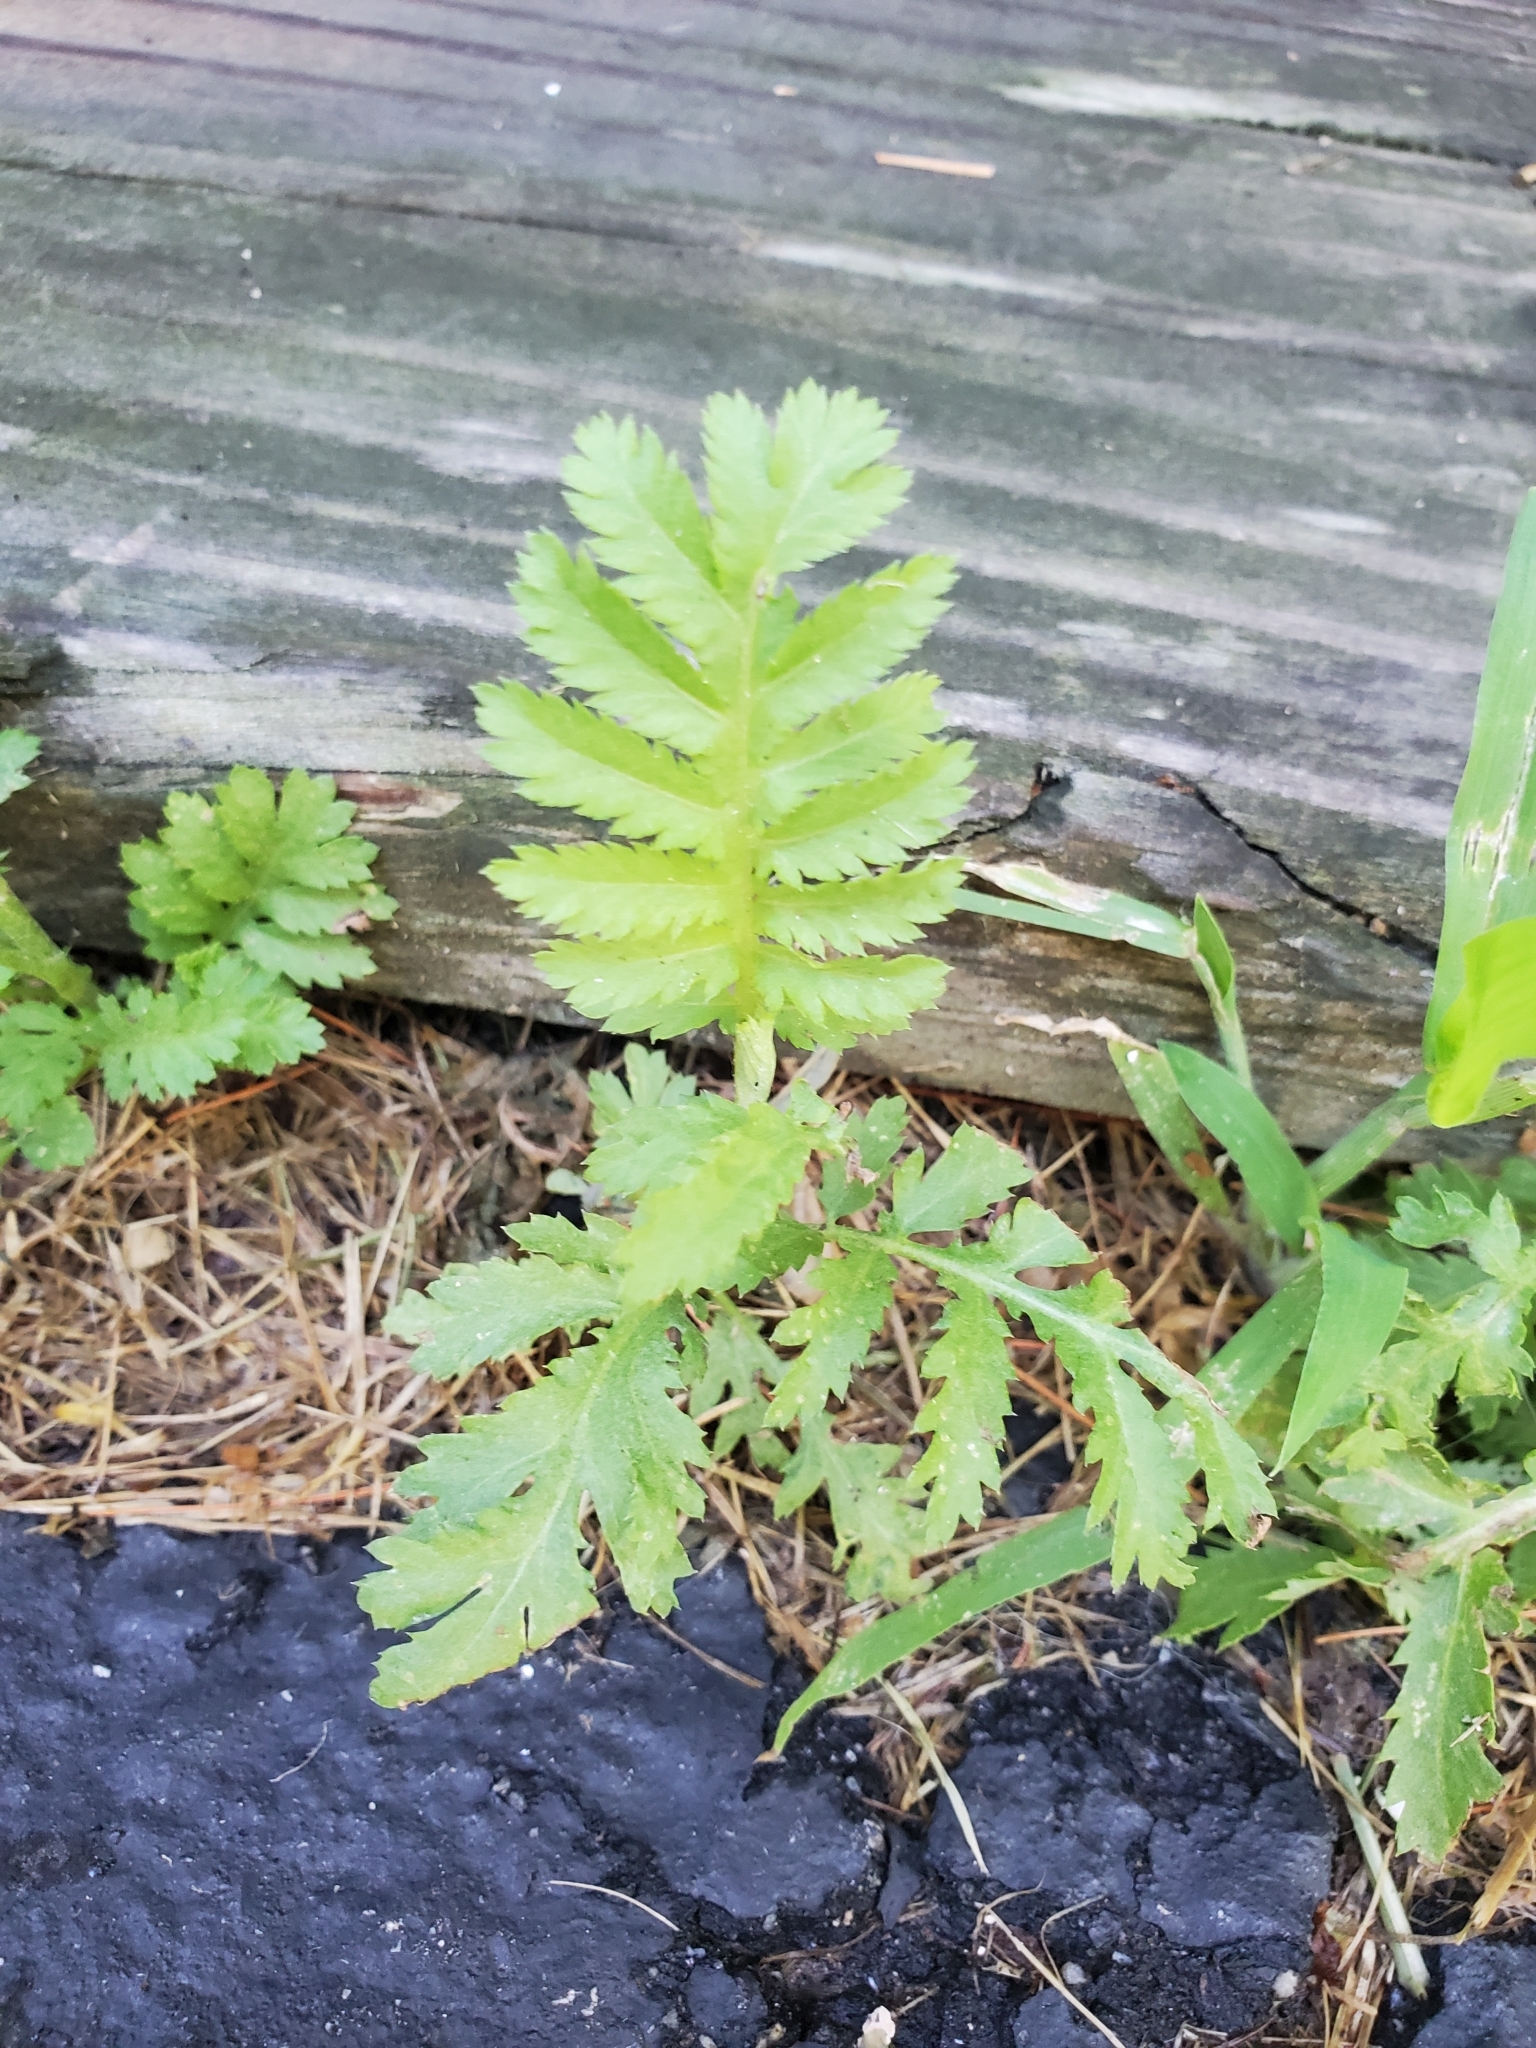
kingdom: Plantae
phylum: Tracheophyta
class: Magnoliopsida
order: Asterales
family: Asteraceae
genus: Tanacetum
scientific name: Tanacetum vulgare
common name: Common tansy
